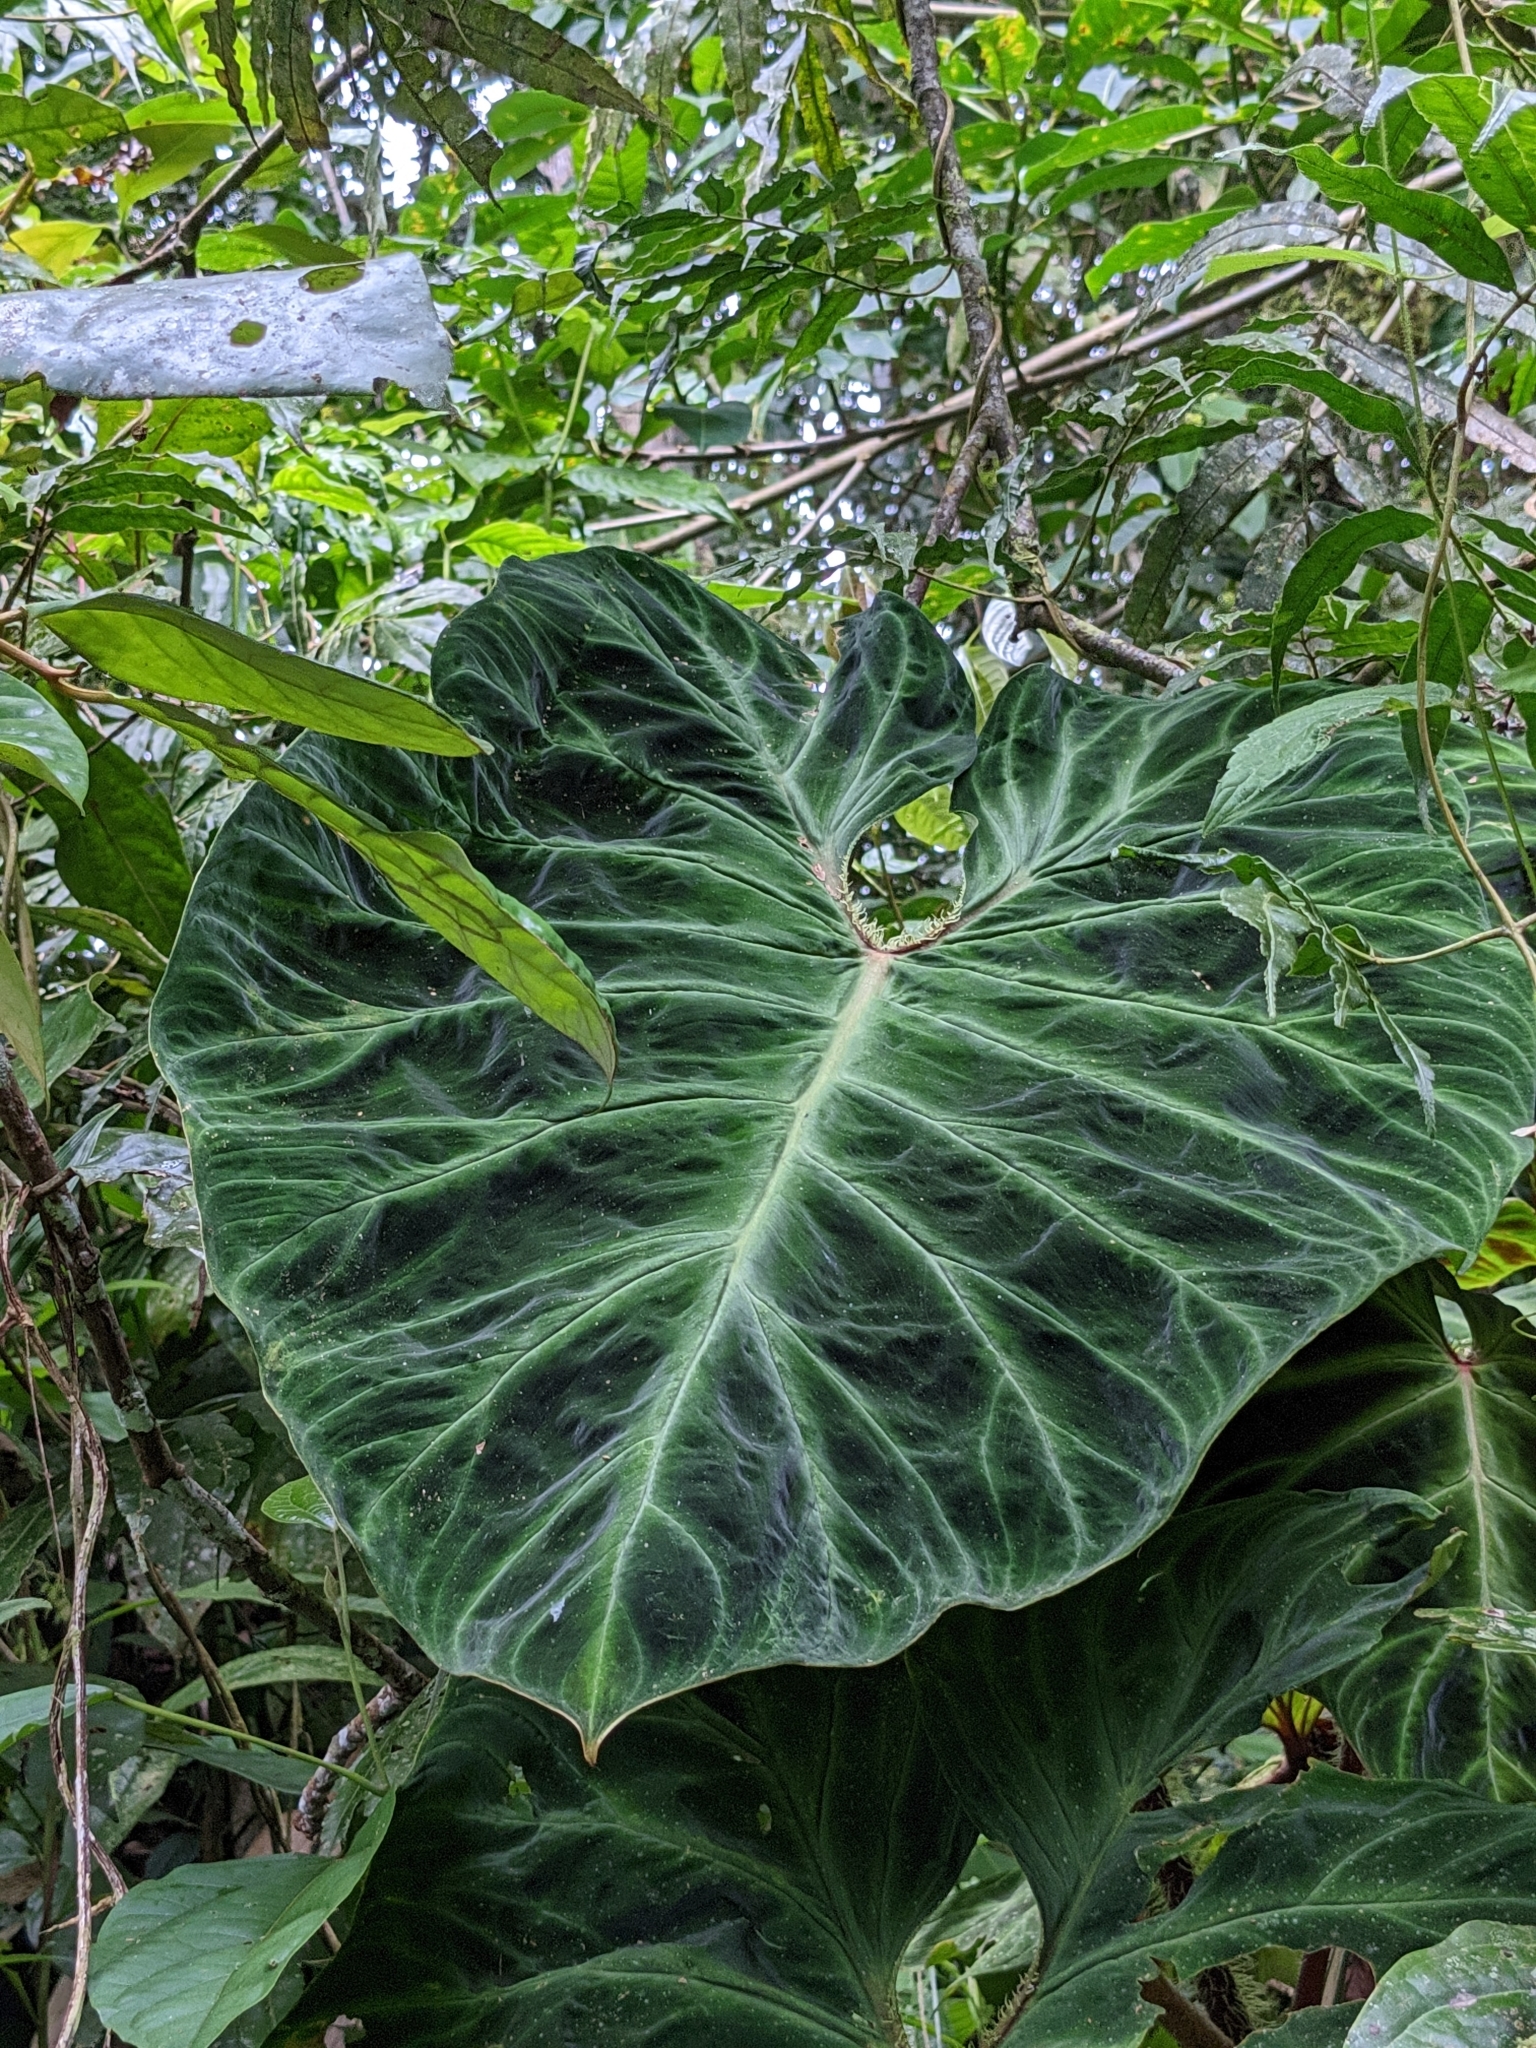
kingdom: Plantae
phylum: Tracheophyta
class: Liliopsida
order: Alismatales
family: Araceae
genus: Philodendron
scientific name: Philodendron verrucosum
